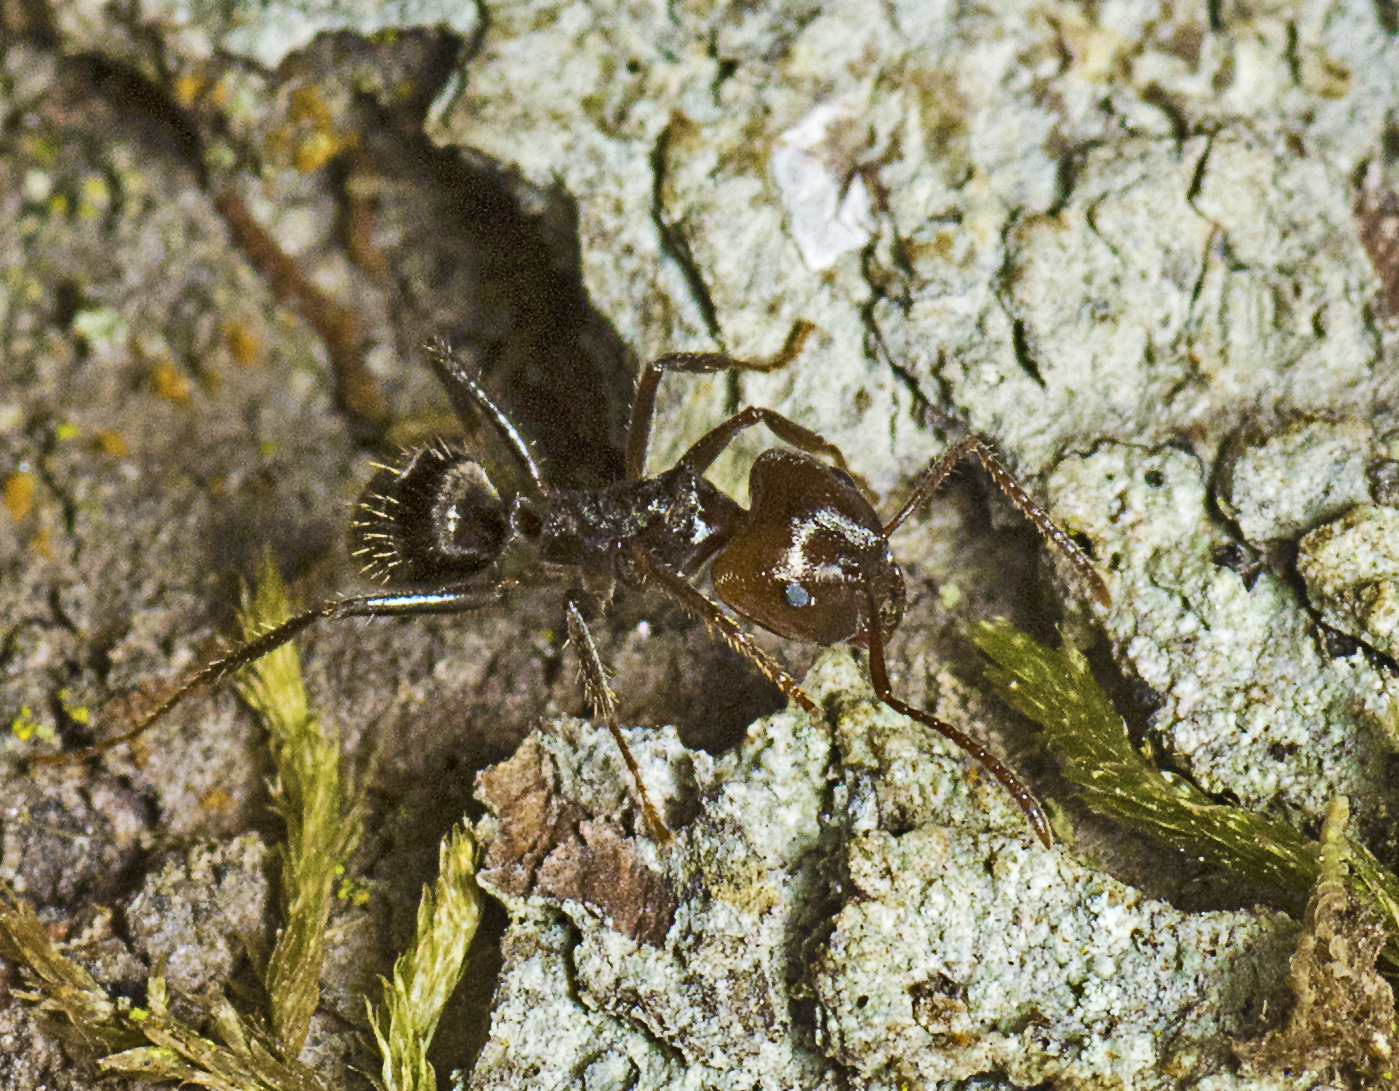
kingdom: Animalia
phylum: Arthropoda
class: Insecta
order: Hymenoptera
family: Formicidae
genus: Notoncus
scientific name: Notoncus capitatus
